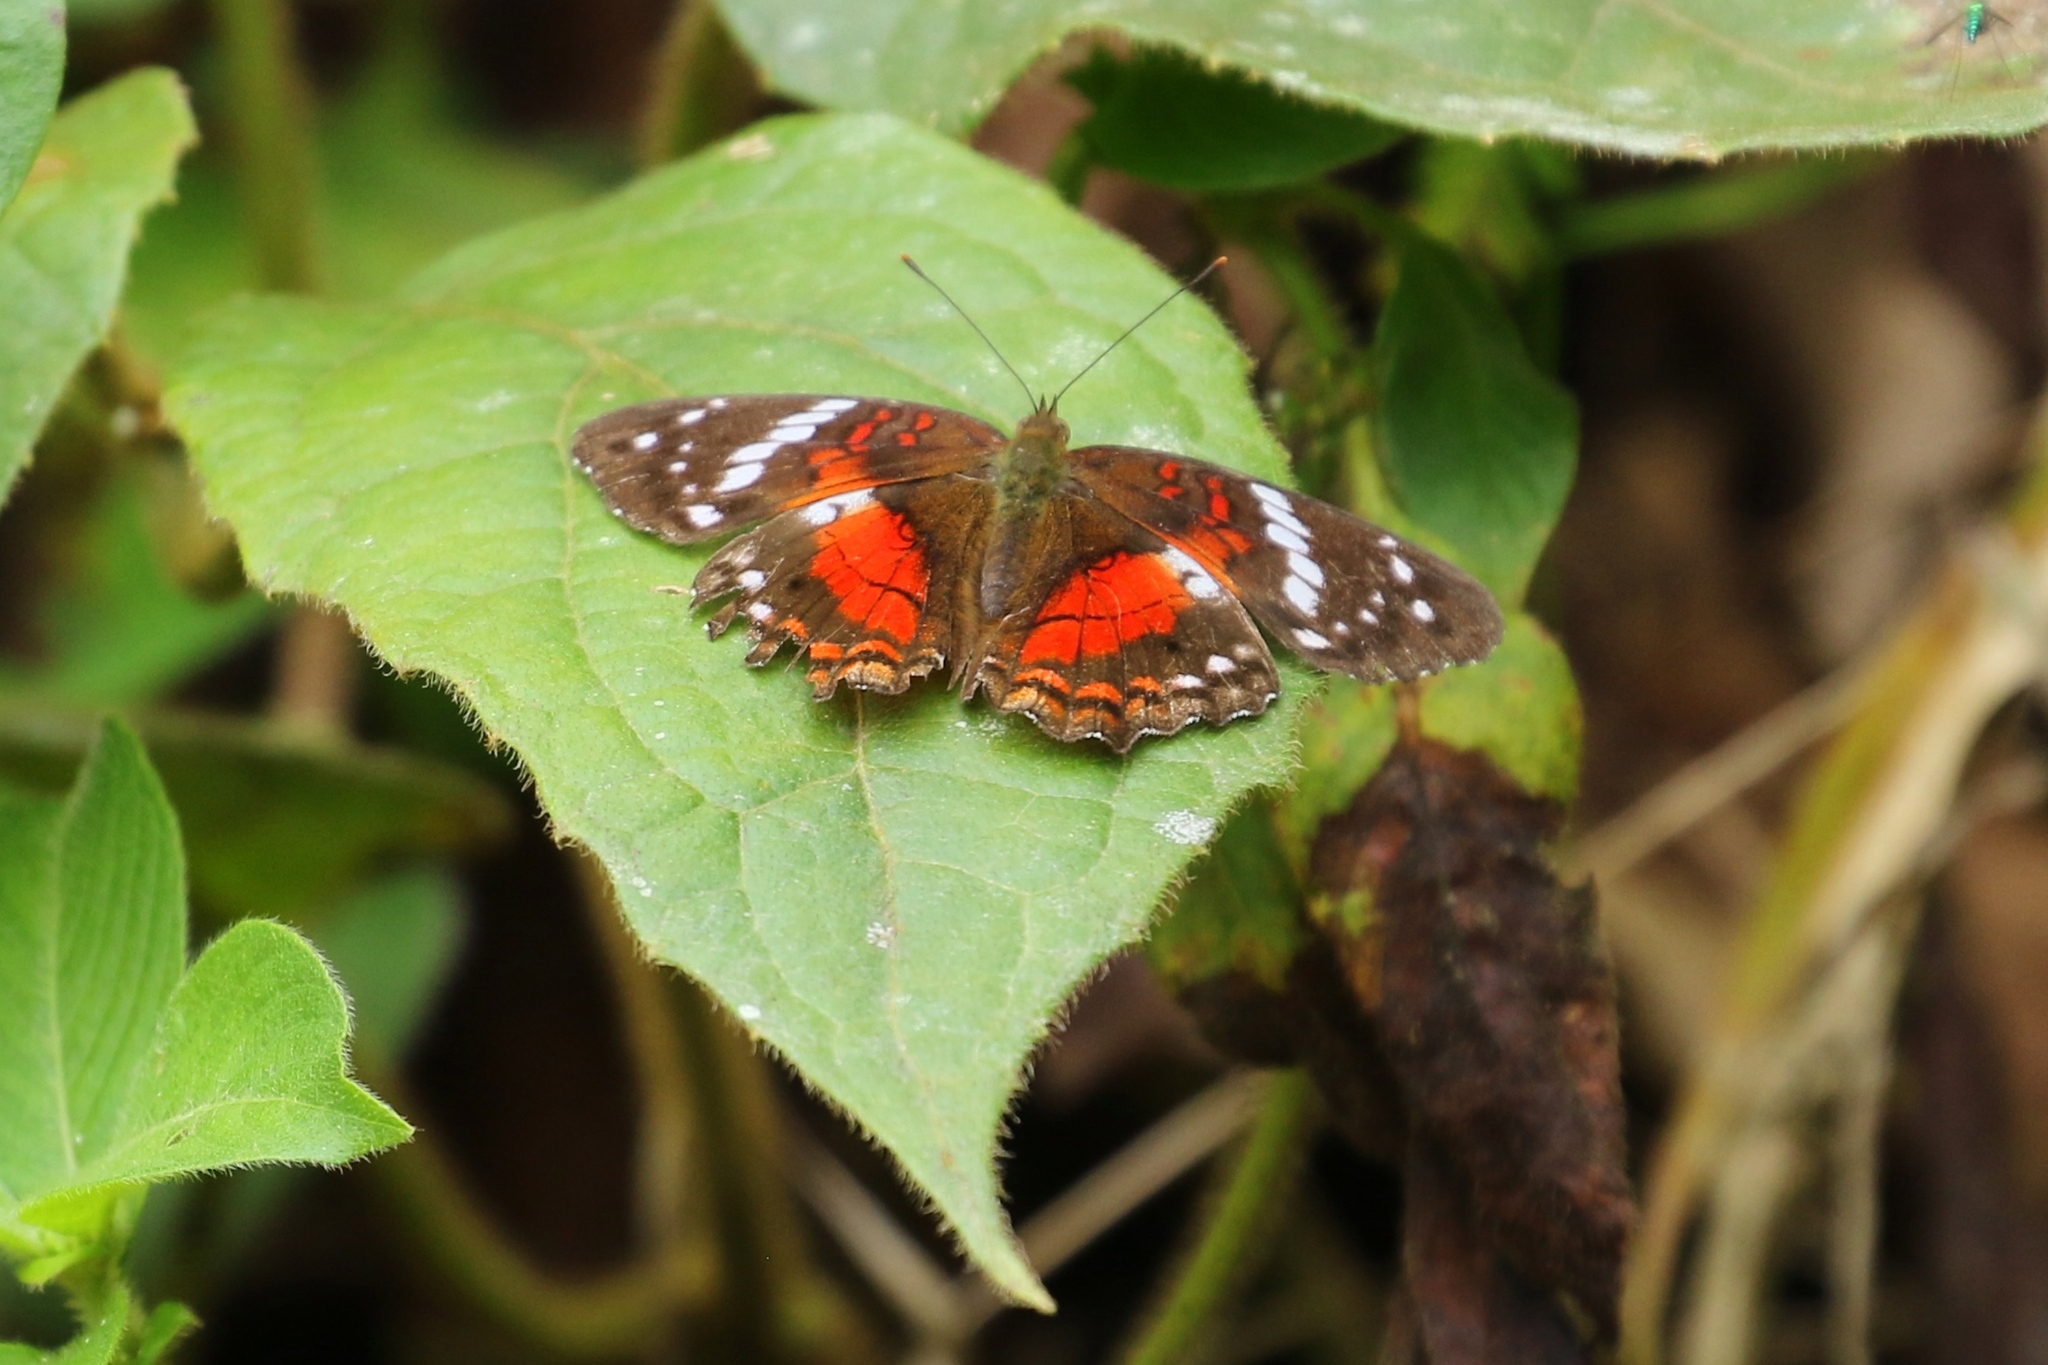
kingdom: Animalia
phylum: Arthropoda
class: Insecta
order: Lepidoptera
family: Nymphalidae
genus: Anartia
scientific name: Anartia amathea
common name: Red peacock
